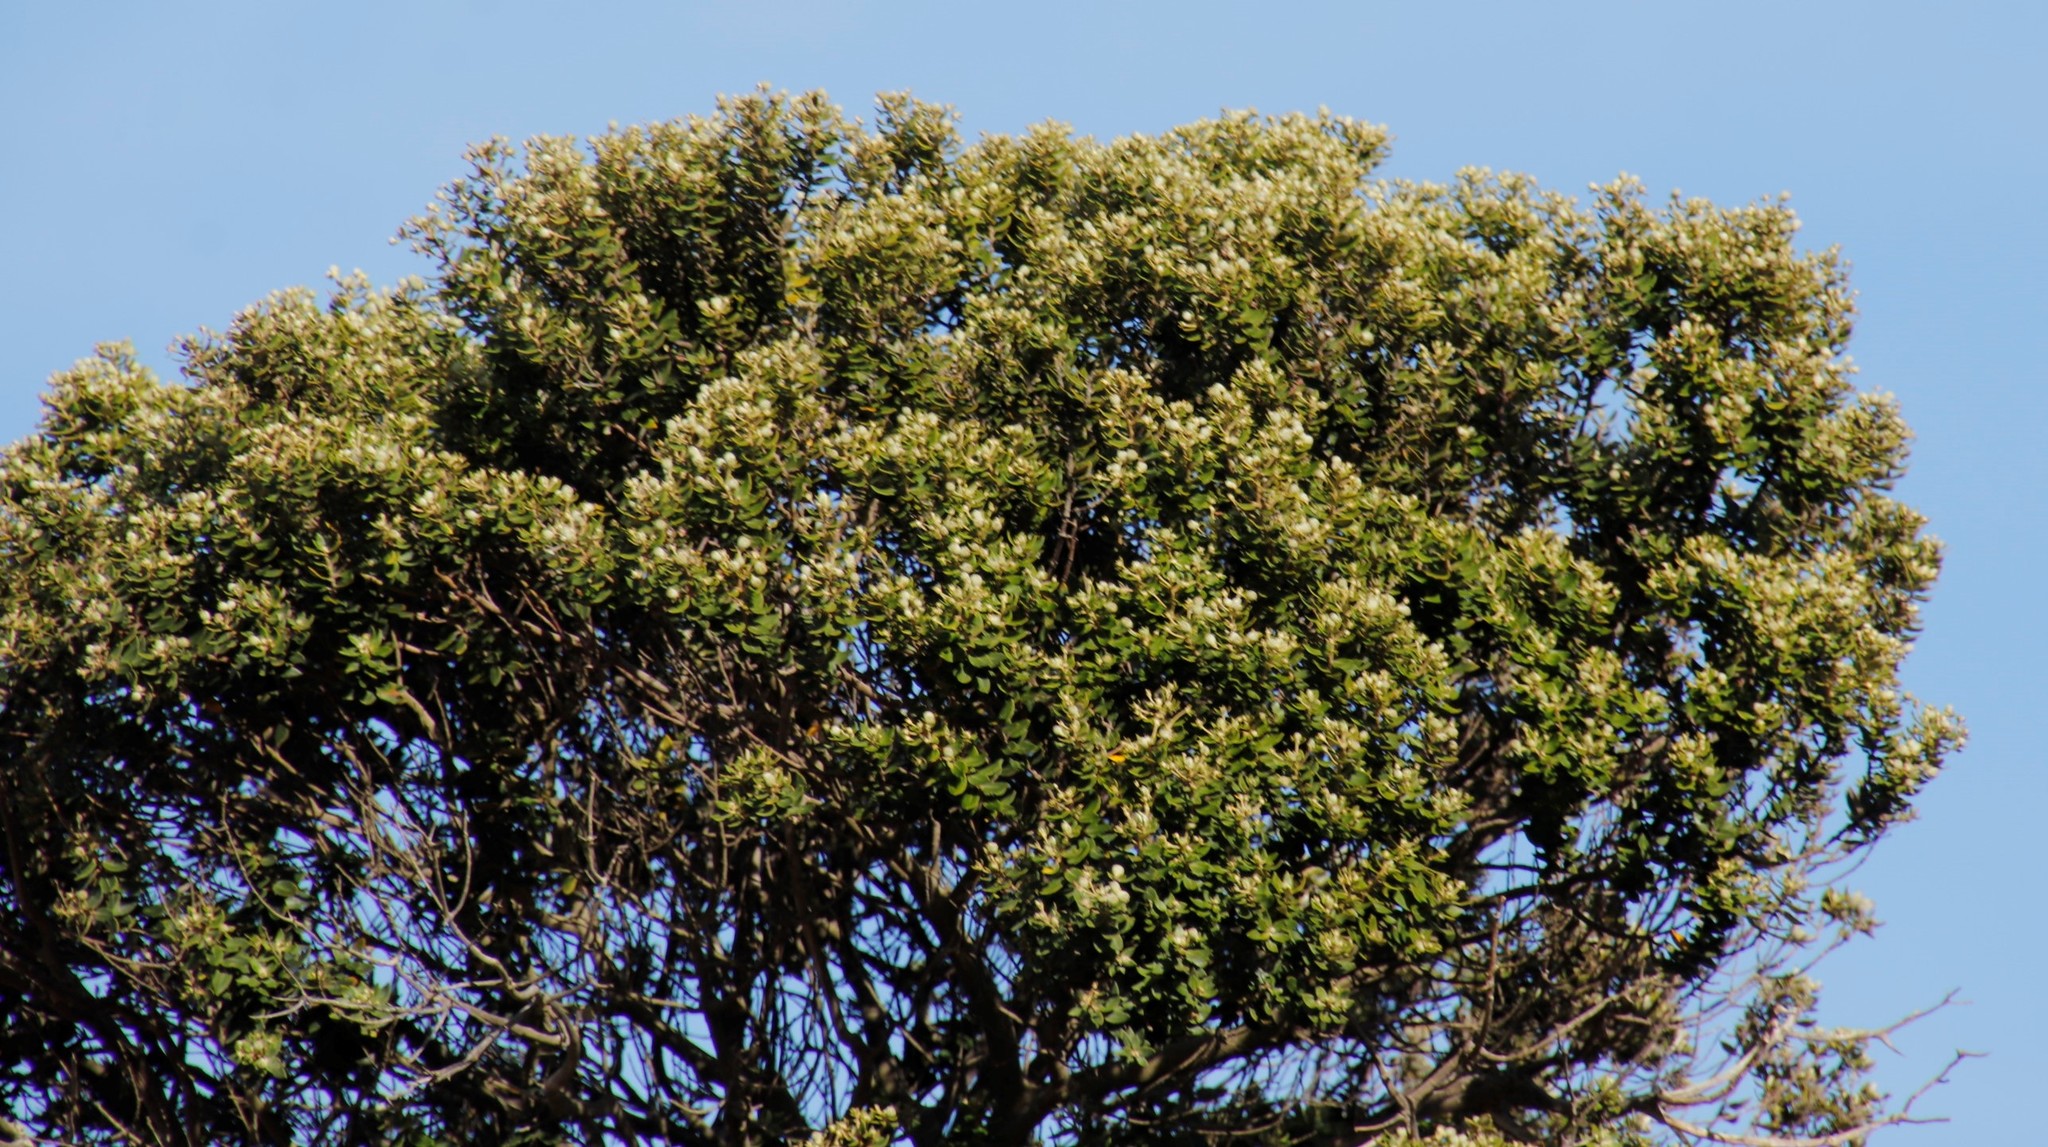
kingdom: Plantae
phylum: Tracheophyta
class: Magnoliopsida
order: Rosales
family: Rhamnaceae
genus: Phylica
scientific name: Phylica buxifolia
